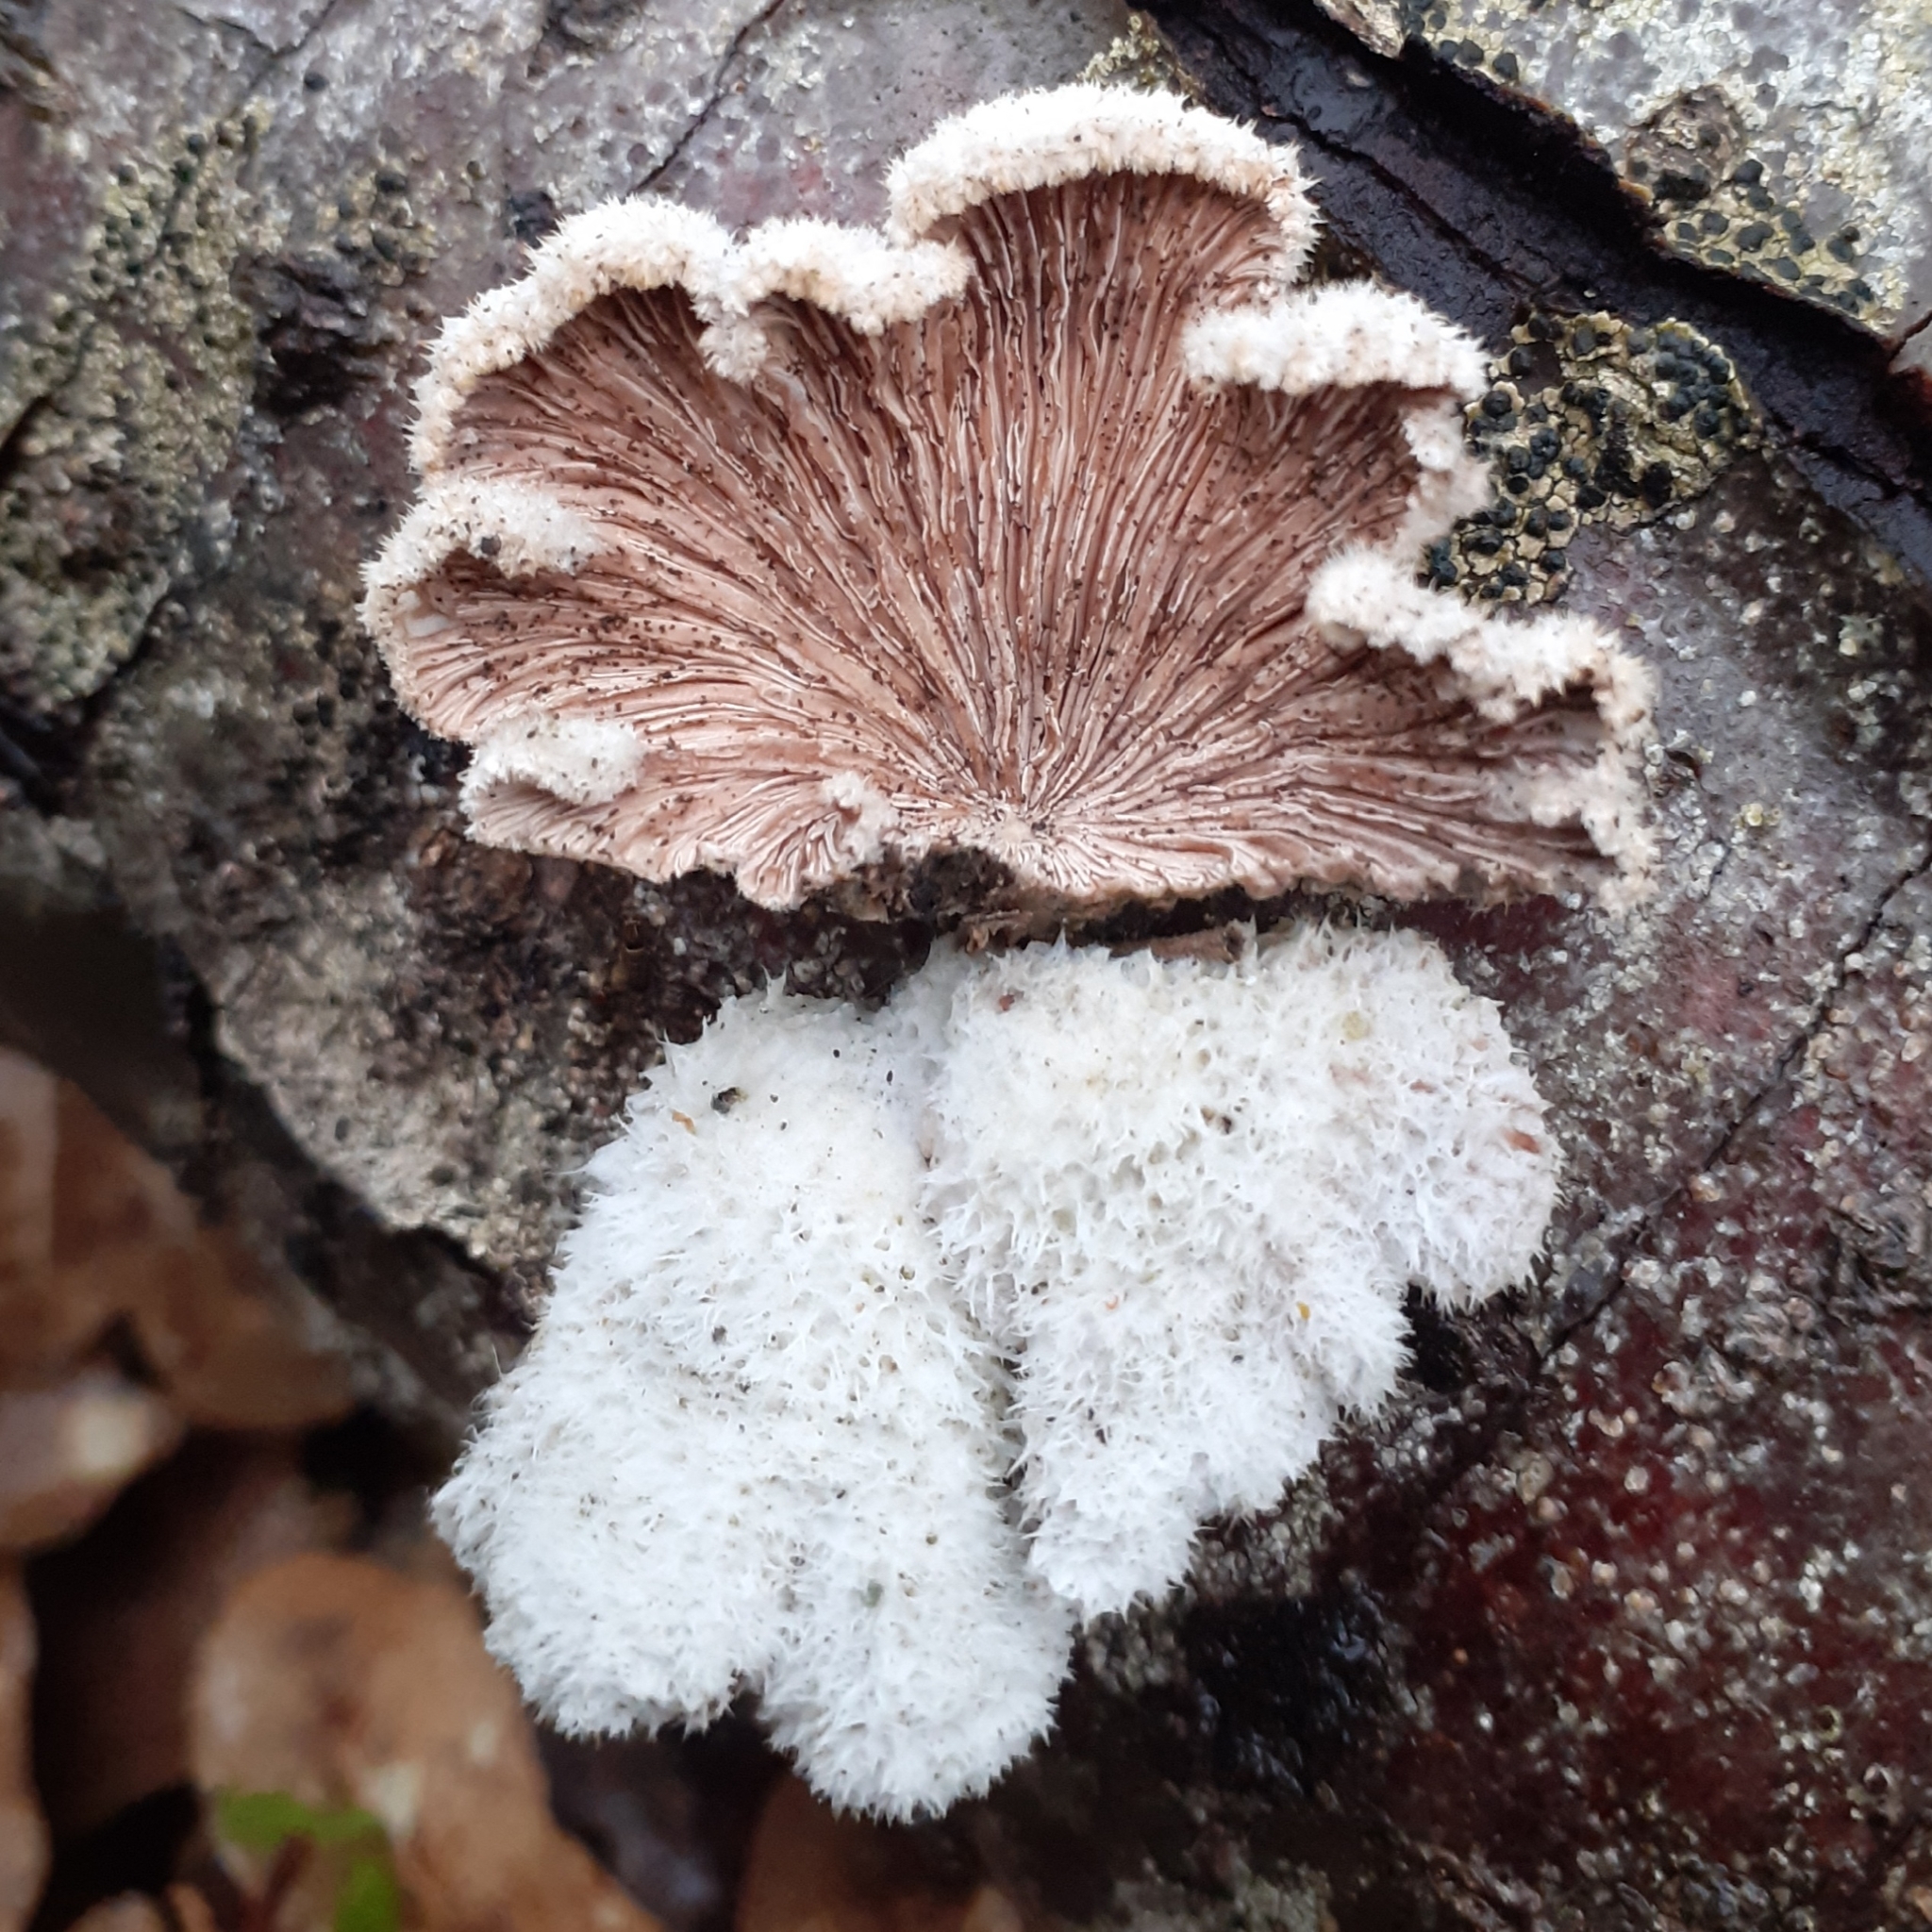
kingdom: Fungi
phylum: Basidiomycota
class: Agaricomycetes
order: Agaricales
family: Schizophyllaceae
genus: Schizophyllum
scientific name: Schizophyllum commune
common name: Common porecrust
